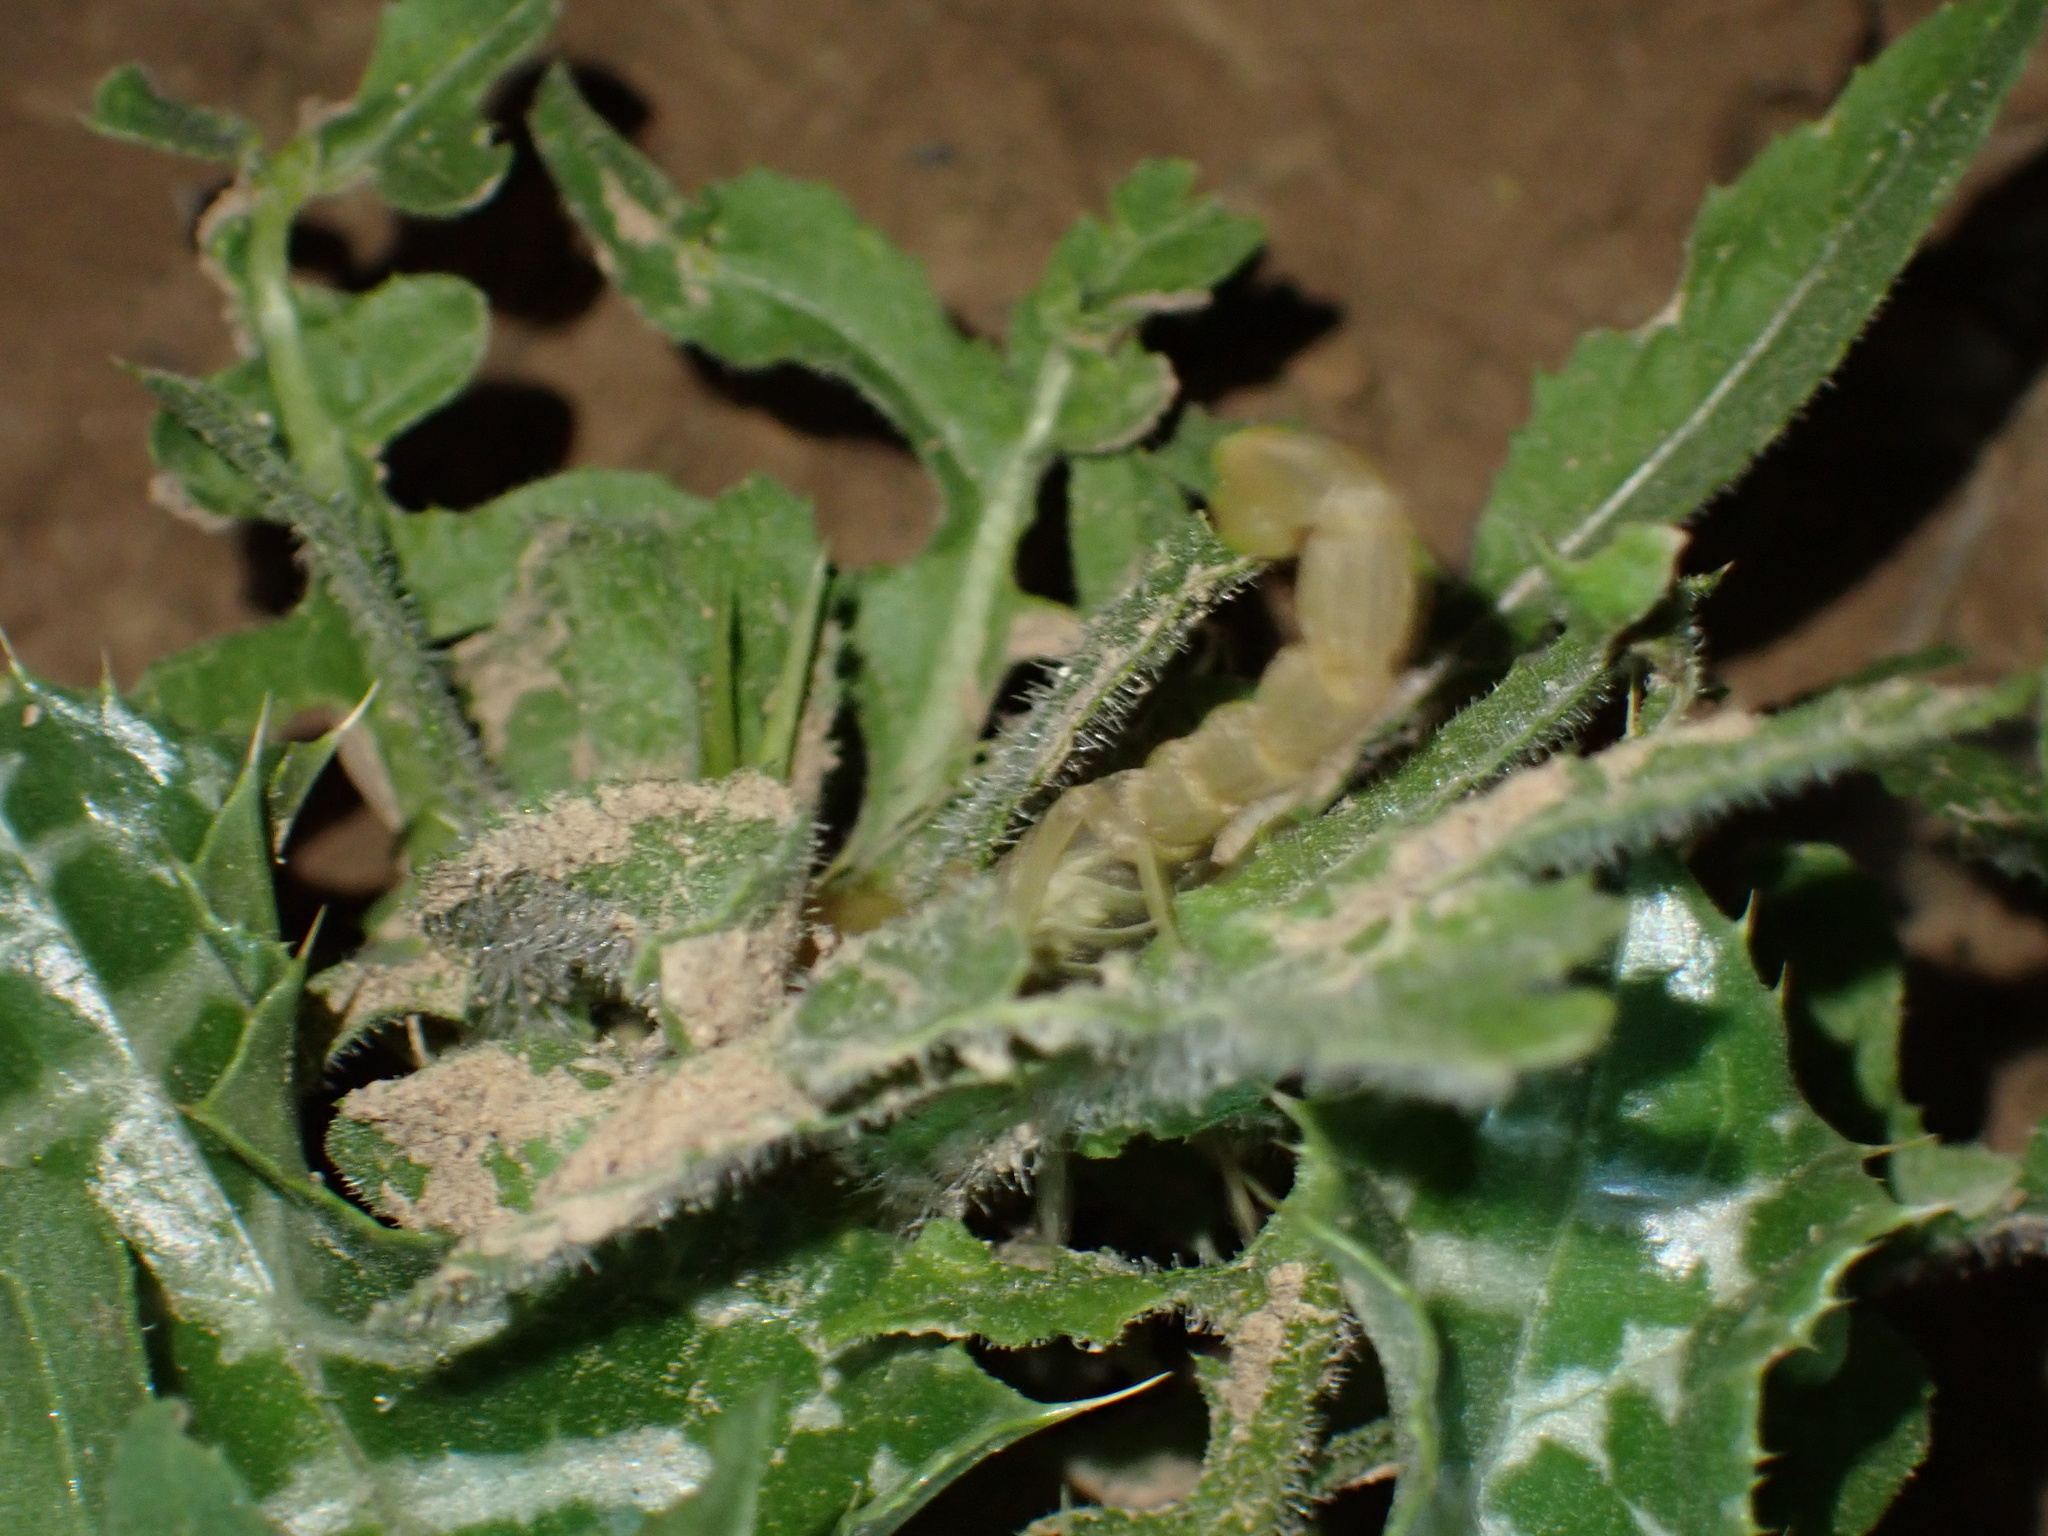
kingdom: Animalia
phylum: Arthropoda
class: Arachnida
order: Scorpiones
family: Buthidae
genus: Mesobuthus
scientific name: Mesobuthus crucittii
